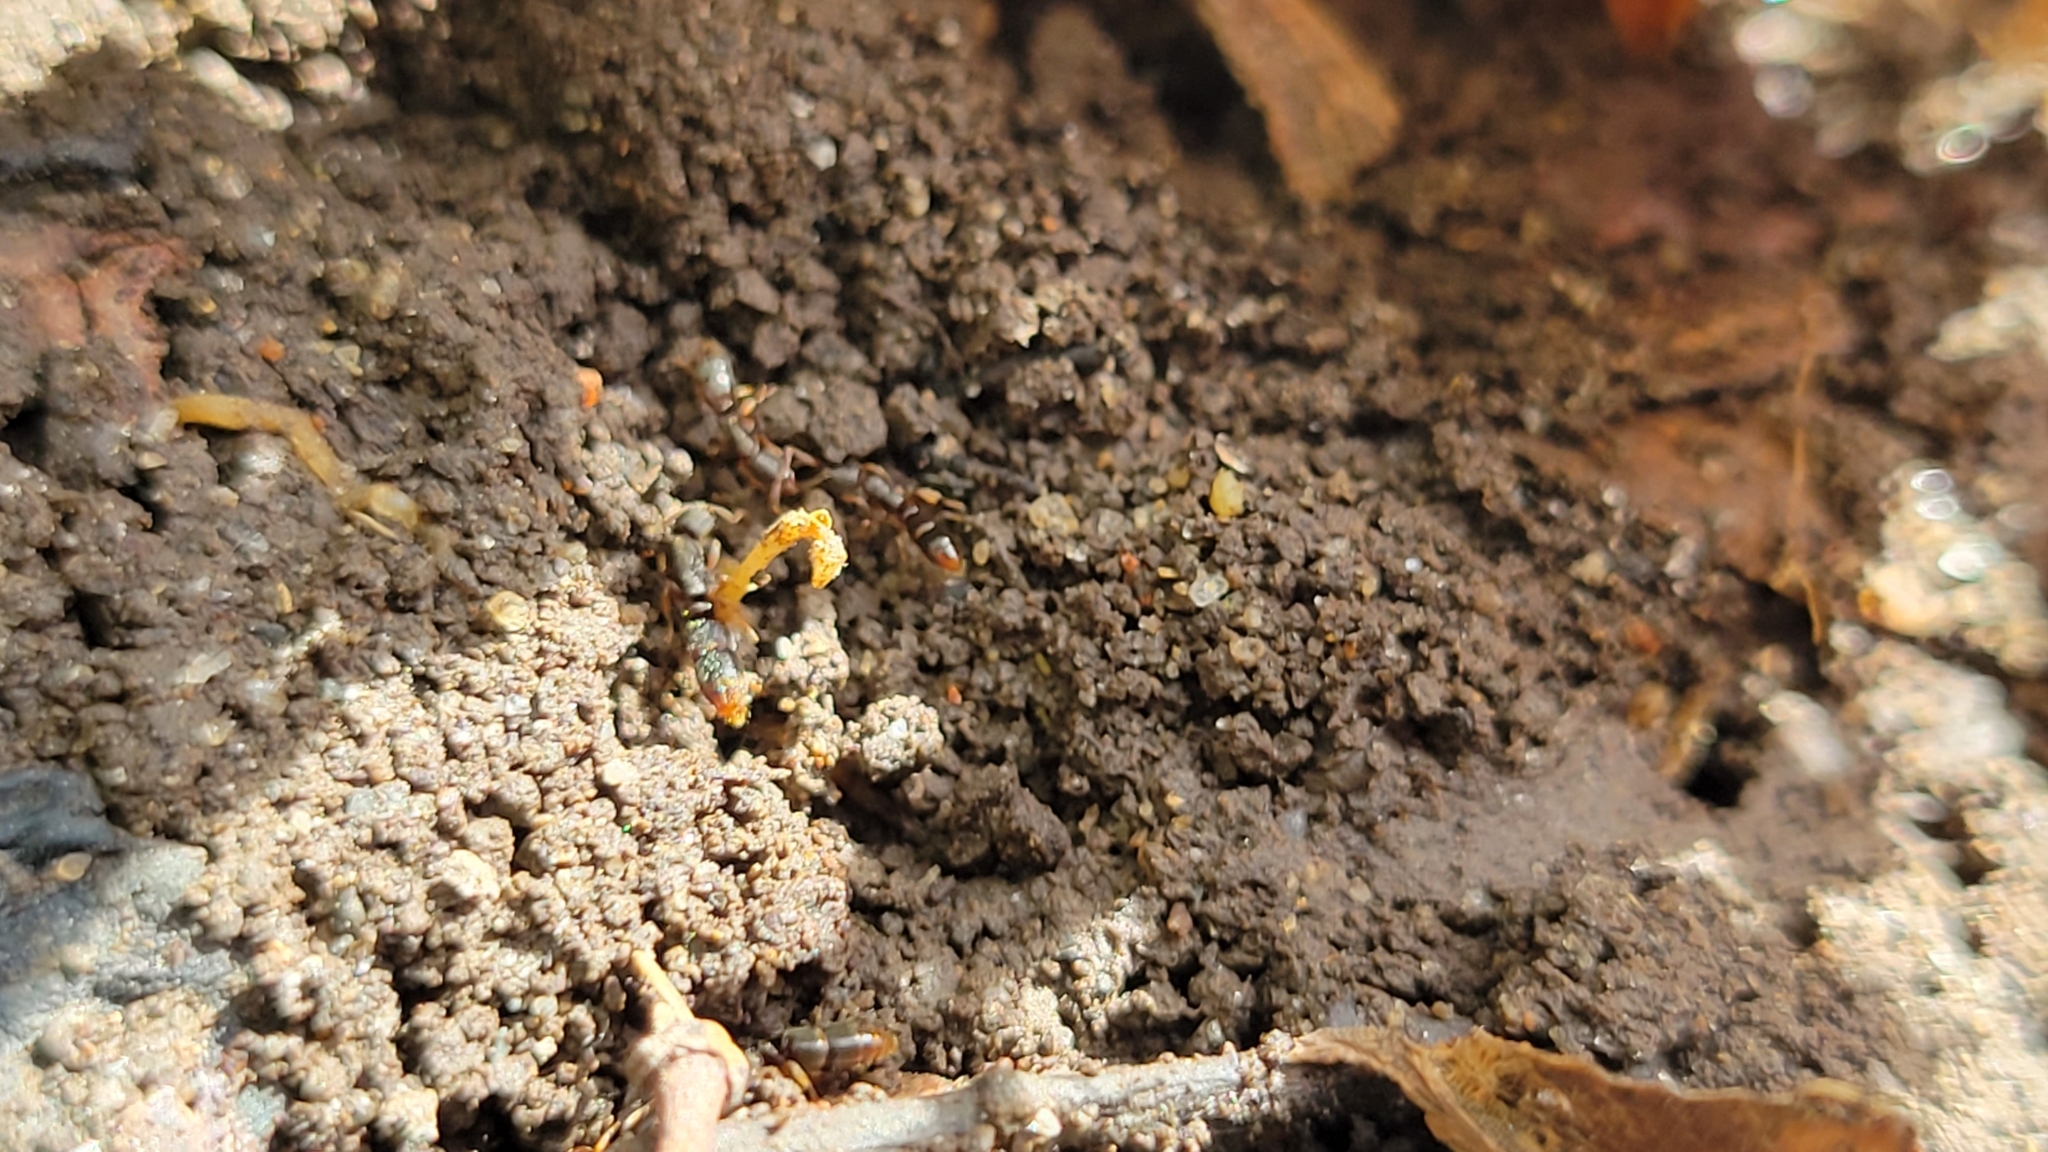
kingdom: Animalia
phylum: Arthropoda
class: Insecta
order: Hymenoptera
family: Formicidae
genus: Ponera
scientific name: Ponera pennsylvanica
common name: Pennsylvania ponera
